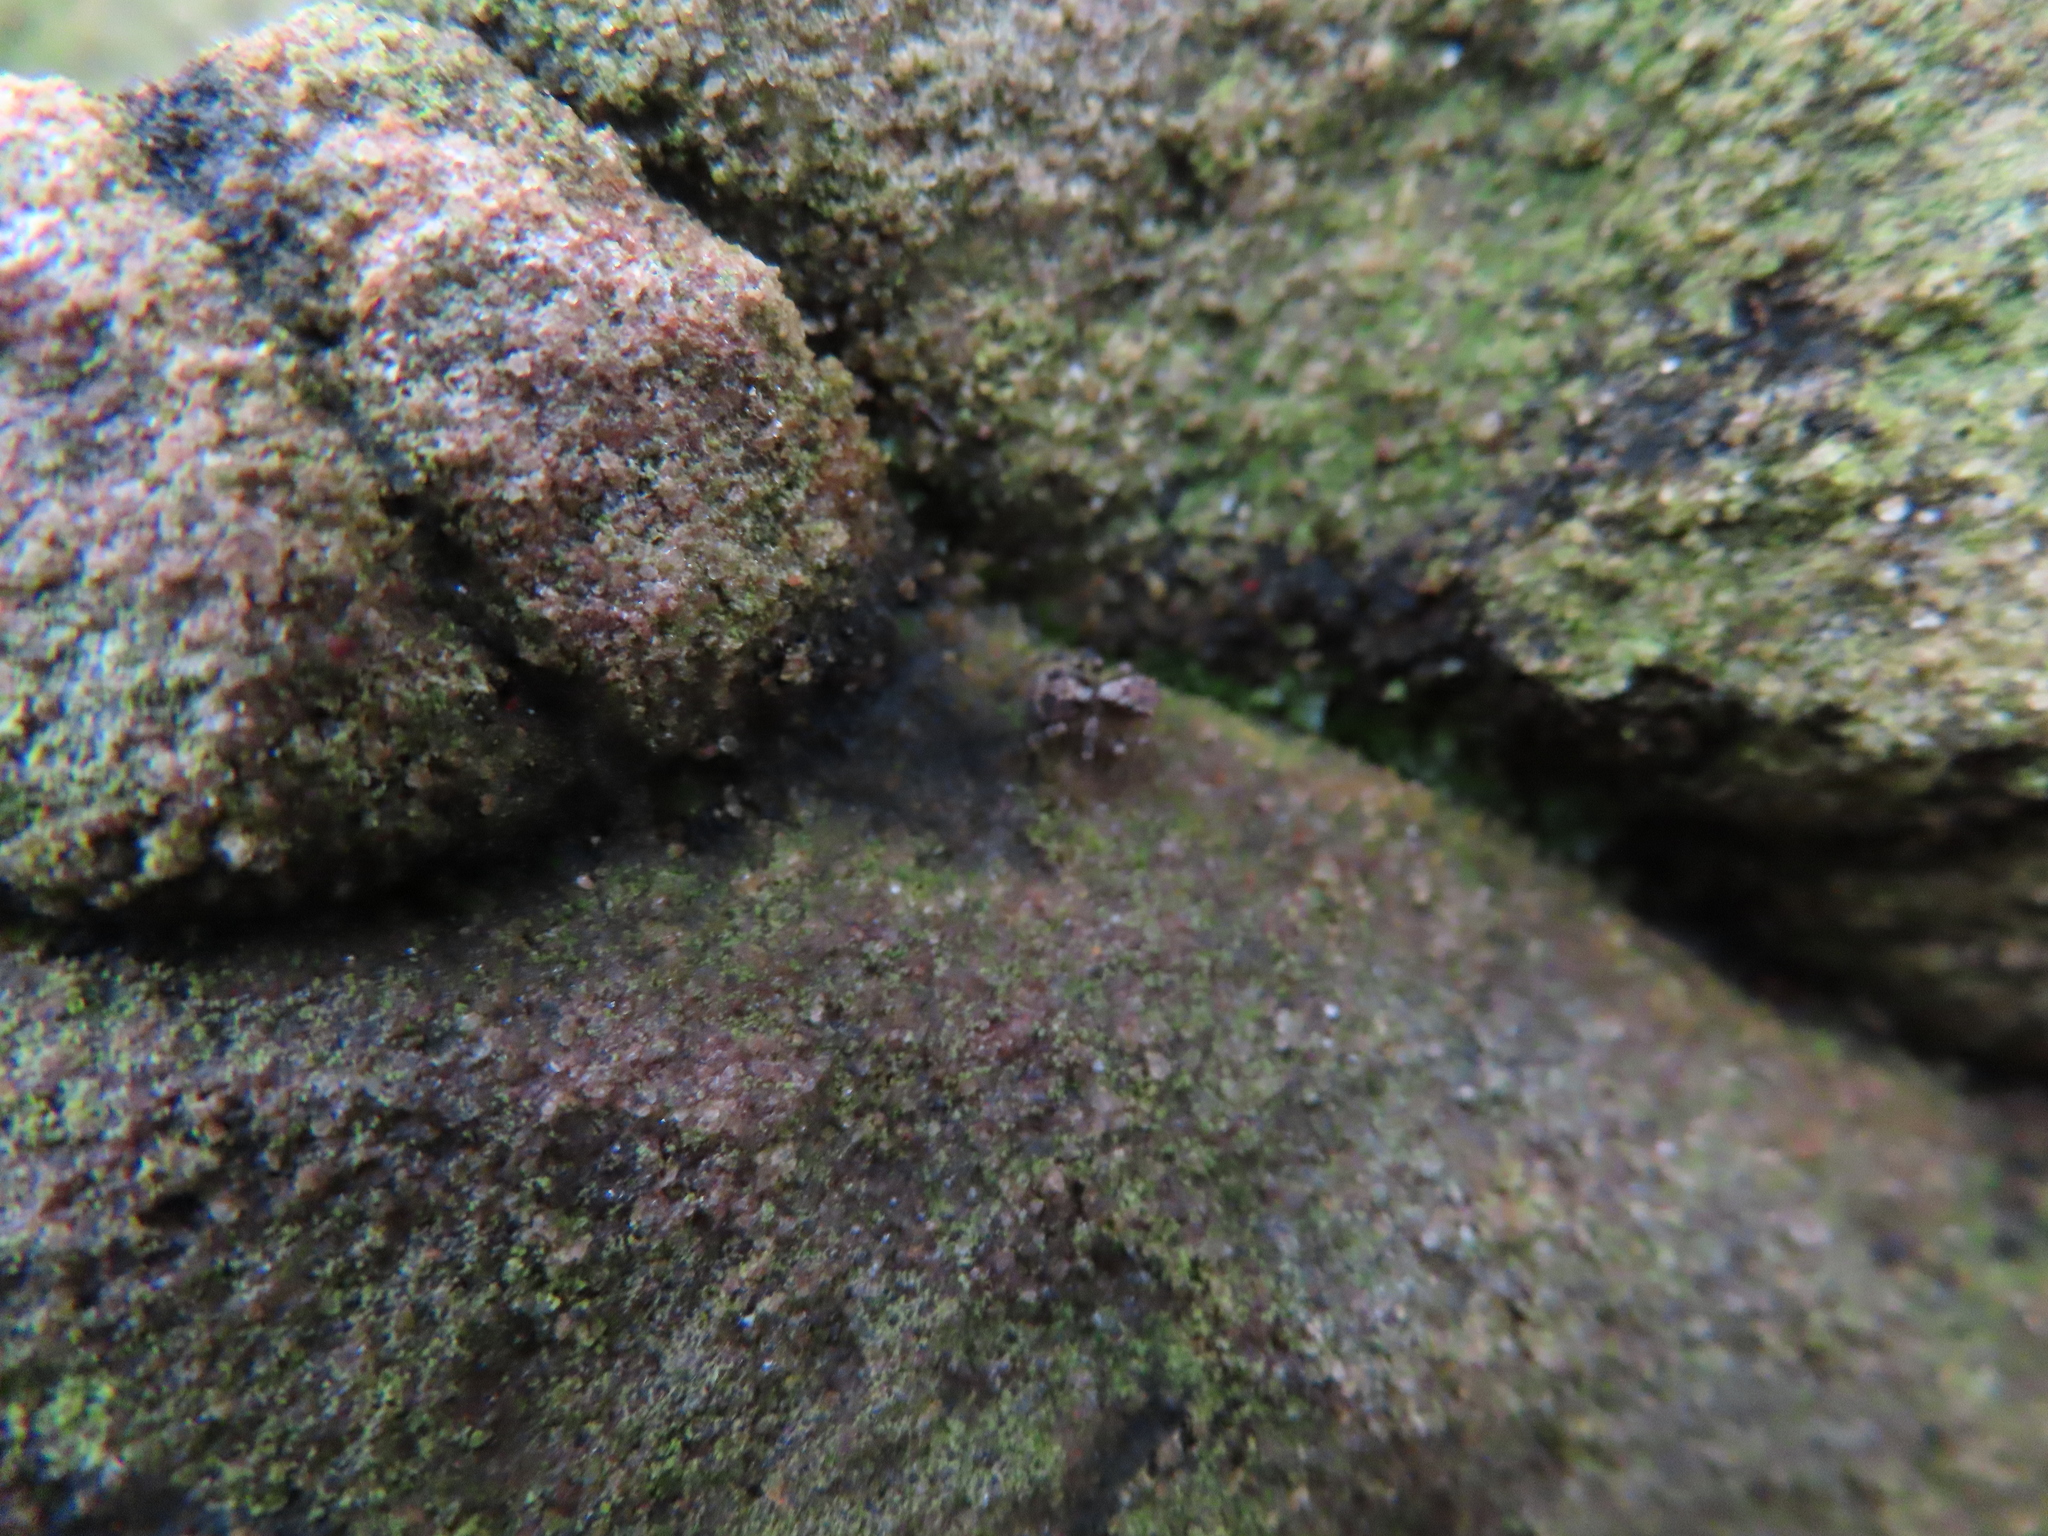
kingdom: Animalia
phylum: Arthropoda
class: Arachnida
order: Araneae
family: Salticidae
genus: Naphrys
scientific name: Naphrys pulex
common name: Flea jumping spider
